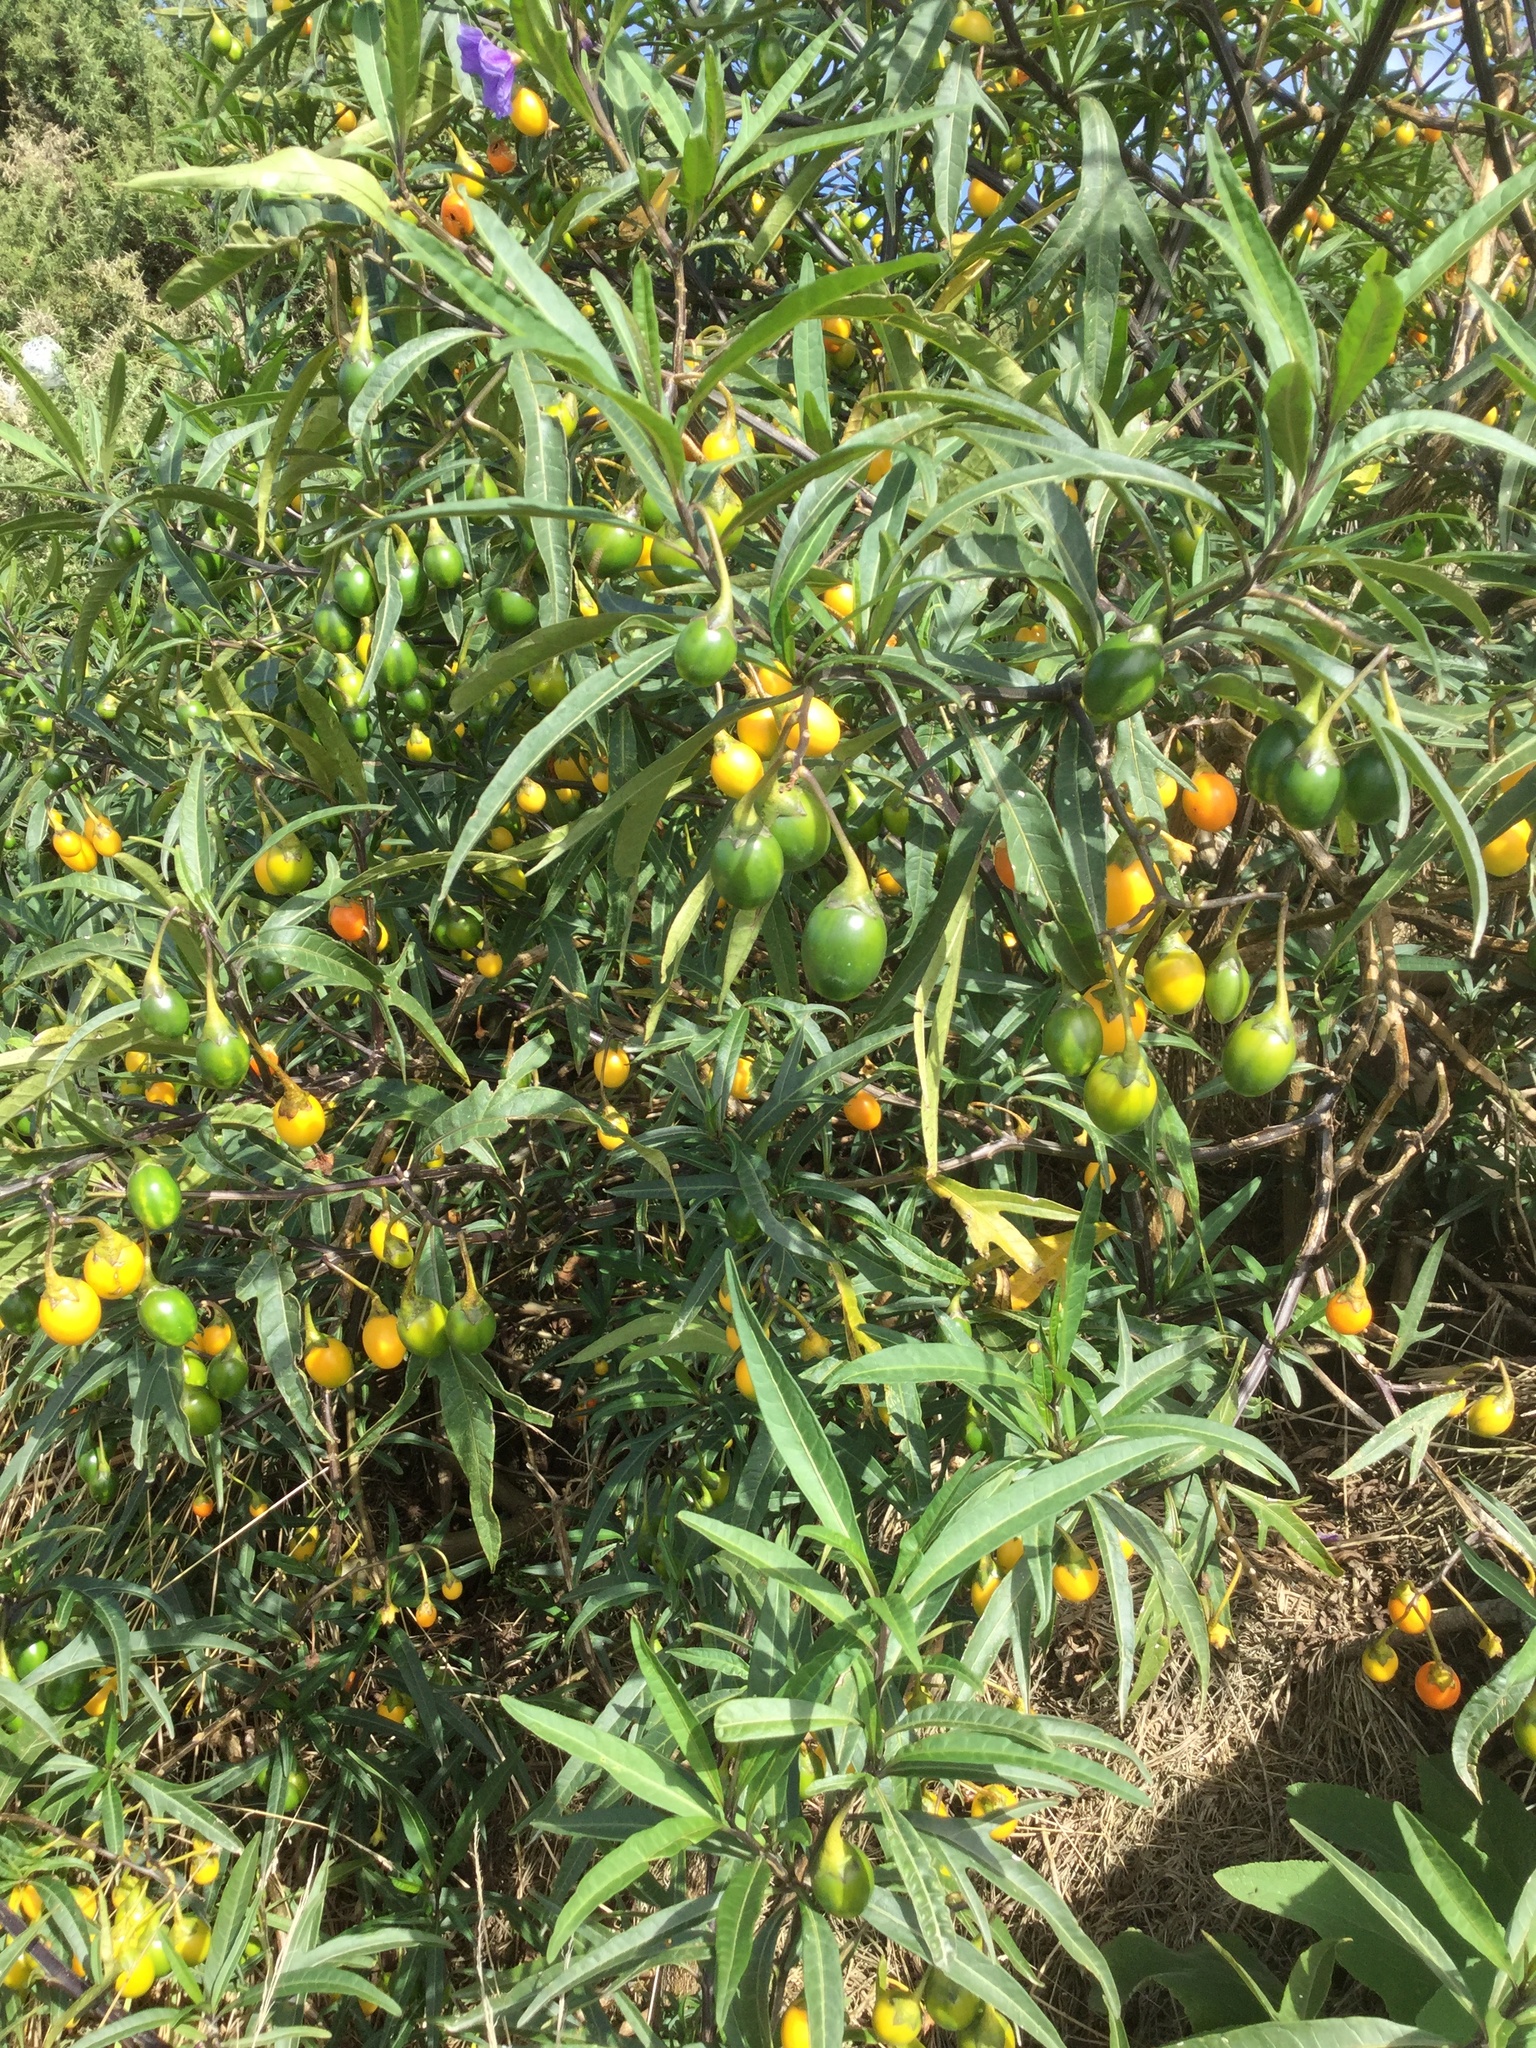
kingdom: Plantae
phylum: Tracheophyta
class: Magnoliopsida
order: Solanales
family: Solanaceae
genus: Solanum
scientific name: Solanum laciniatum
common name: Kangaroo-apple
